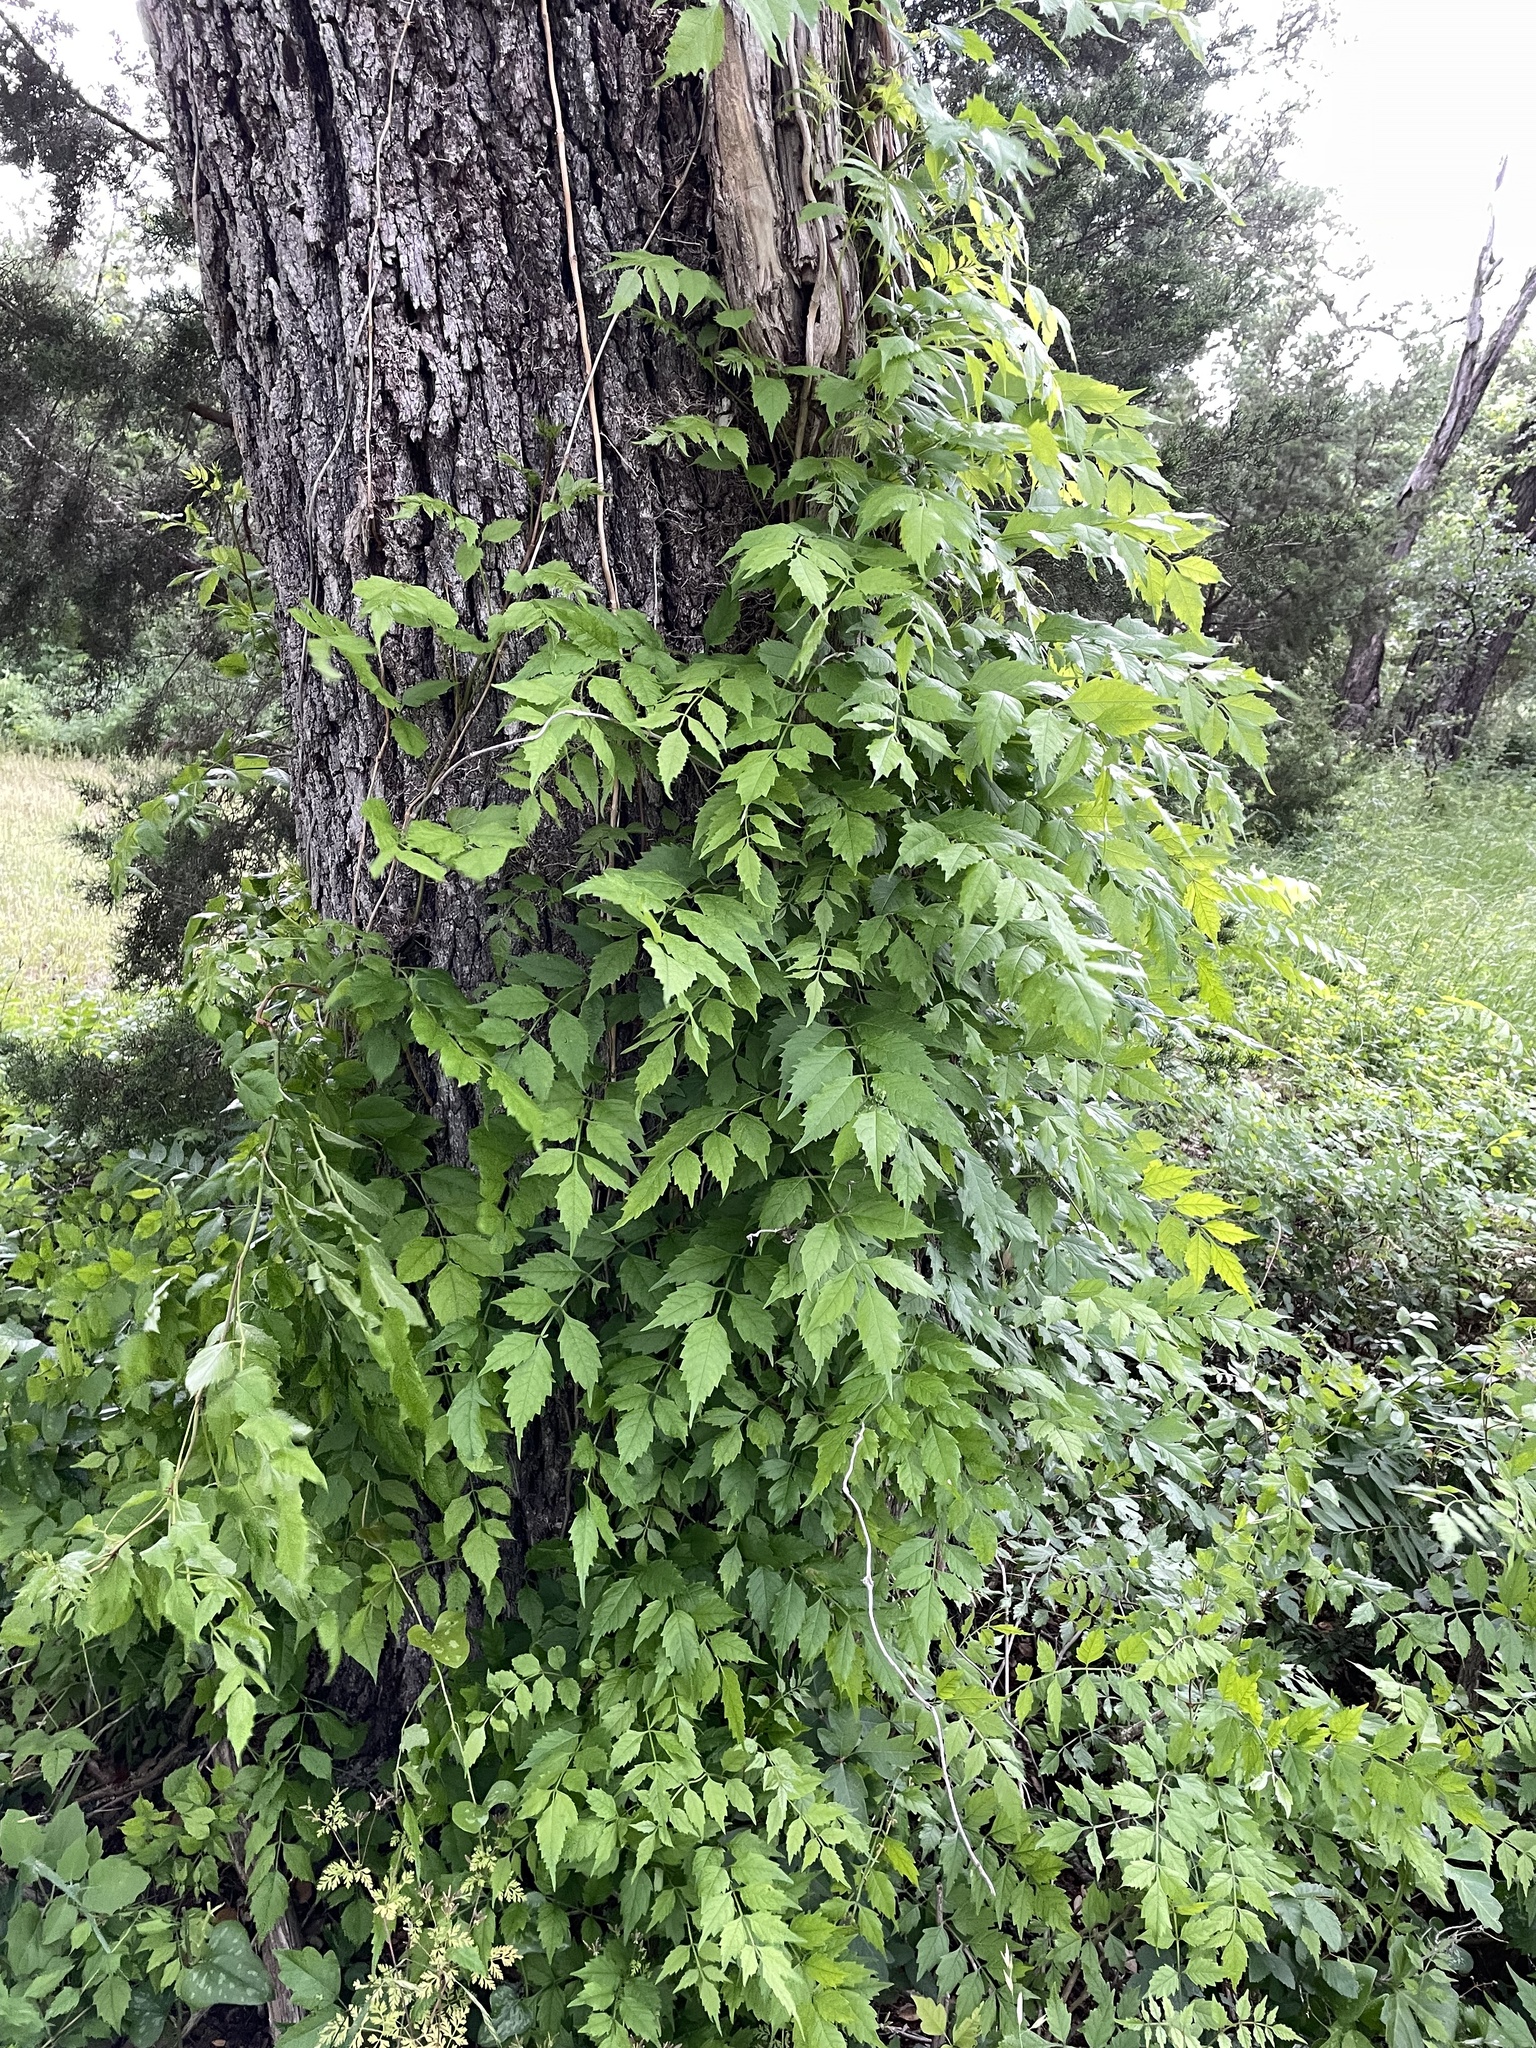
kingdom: Plantae
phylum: Tracheophyta
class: Magnoliopsida
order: Lamiales
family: Bignoniaceae
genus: Campsis
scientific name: Campsis radicans
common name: Trumpet-creeper
